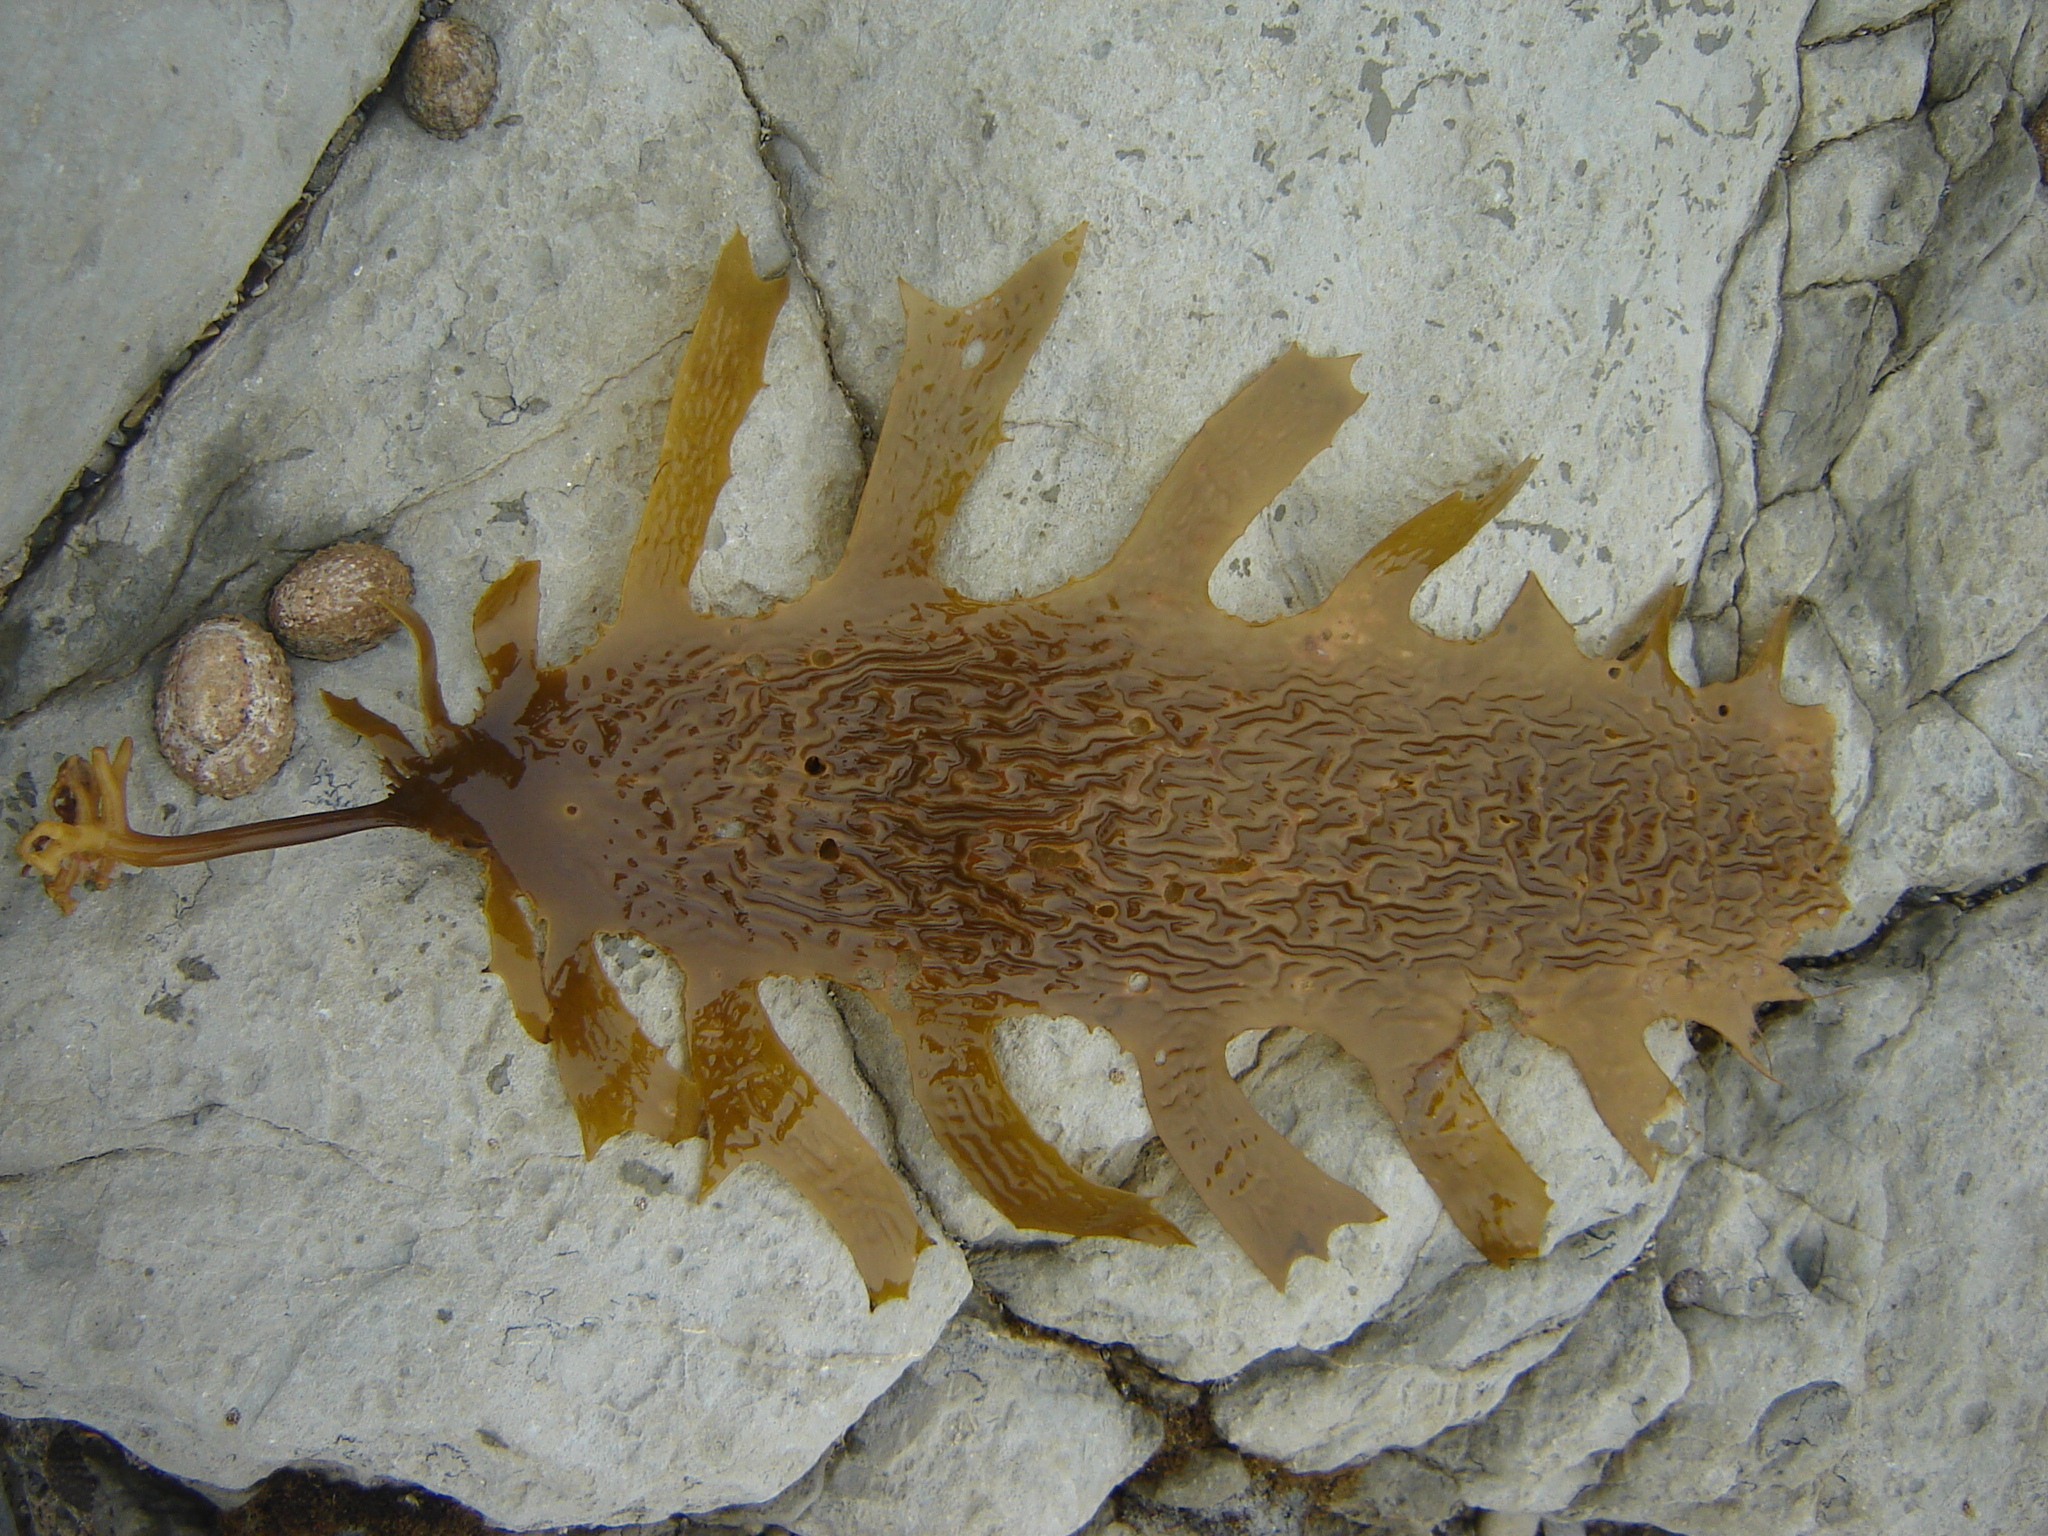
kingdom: Chromista
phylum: Ochrophyta
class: Phaeophyceae
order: Laminariales
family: Lessoniaceae
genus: Ecklonia
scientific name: Ecklonia radiata
